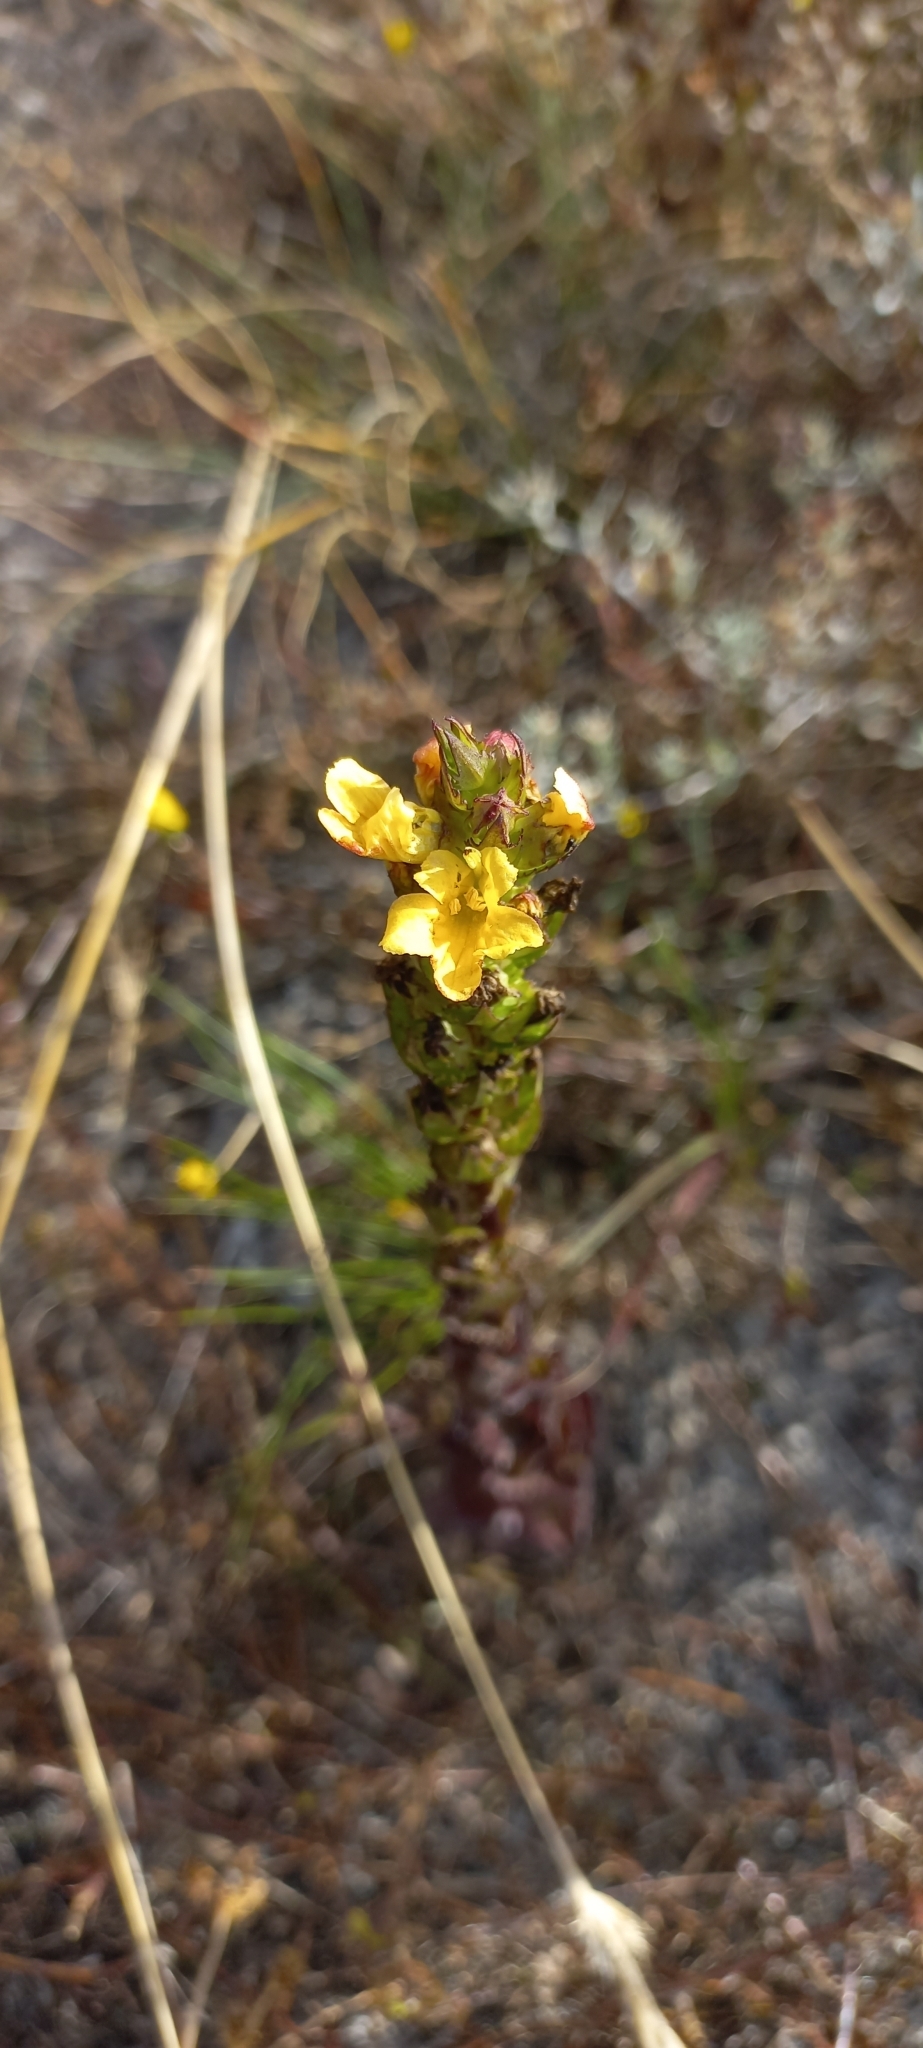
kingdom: Plantae
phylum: Tracheophyta
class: Magnoliopsida
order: Lamiales
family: Orobanchaceae
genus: Alectra
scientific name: Alectra sessiliflora
